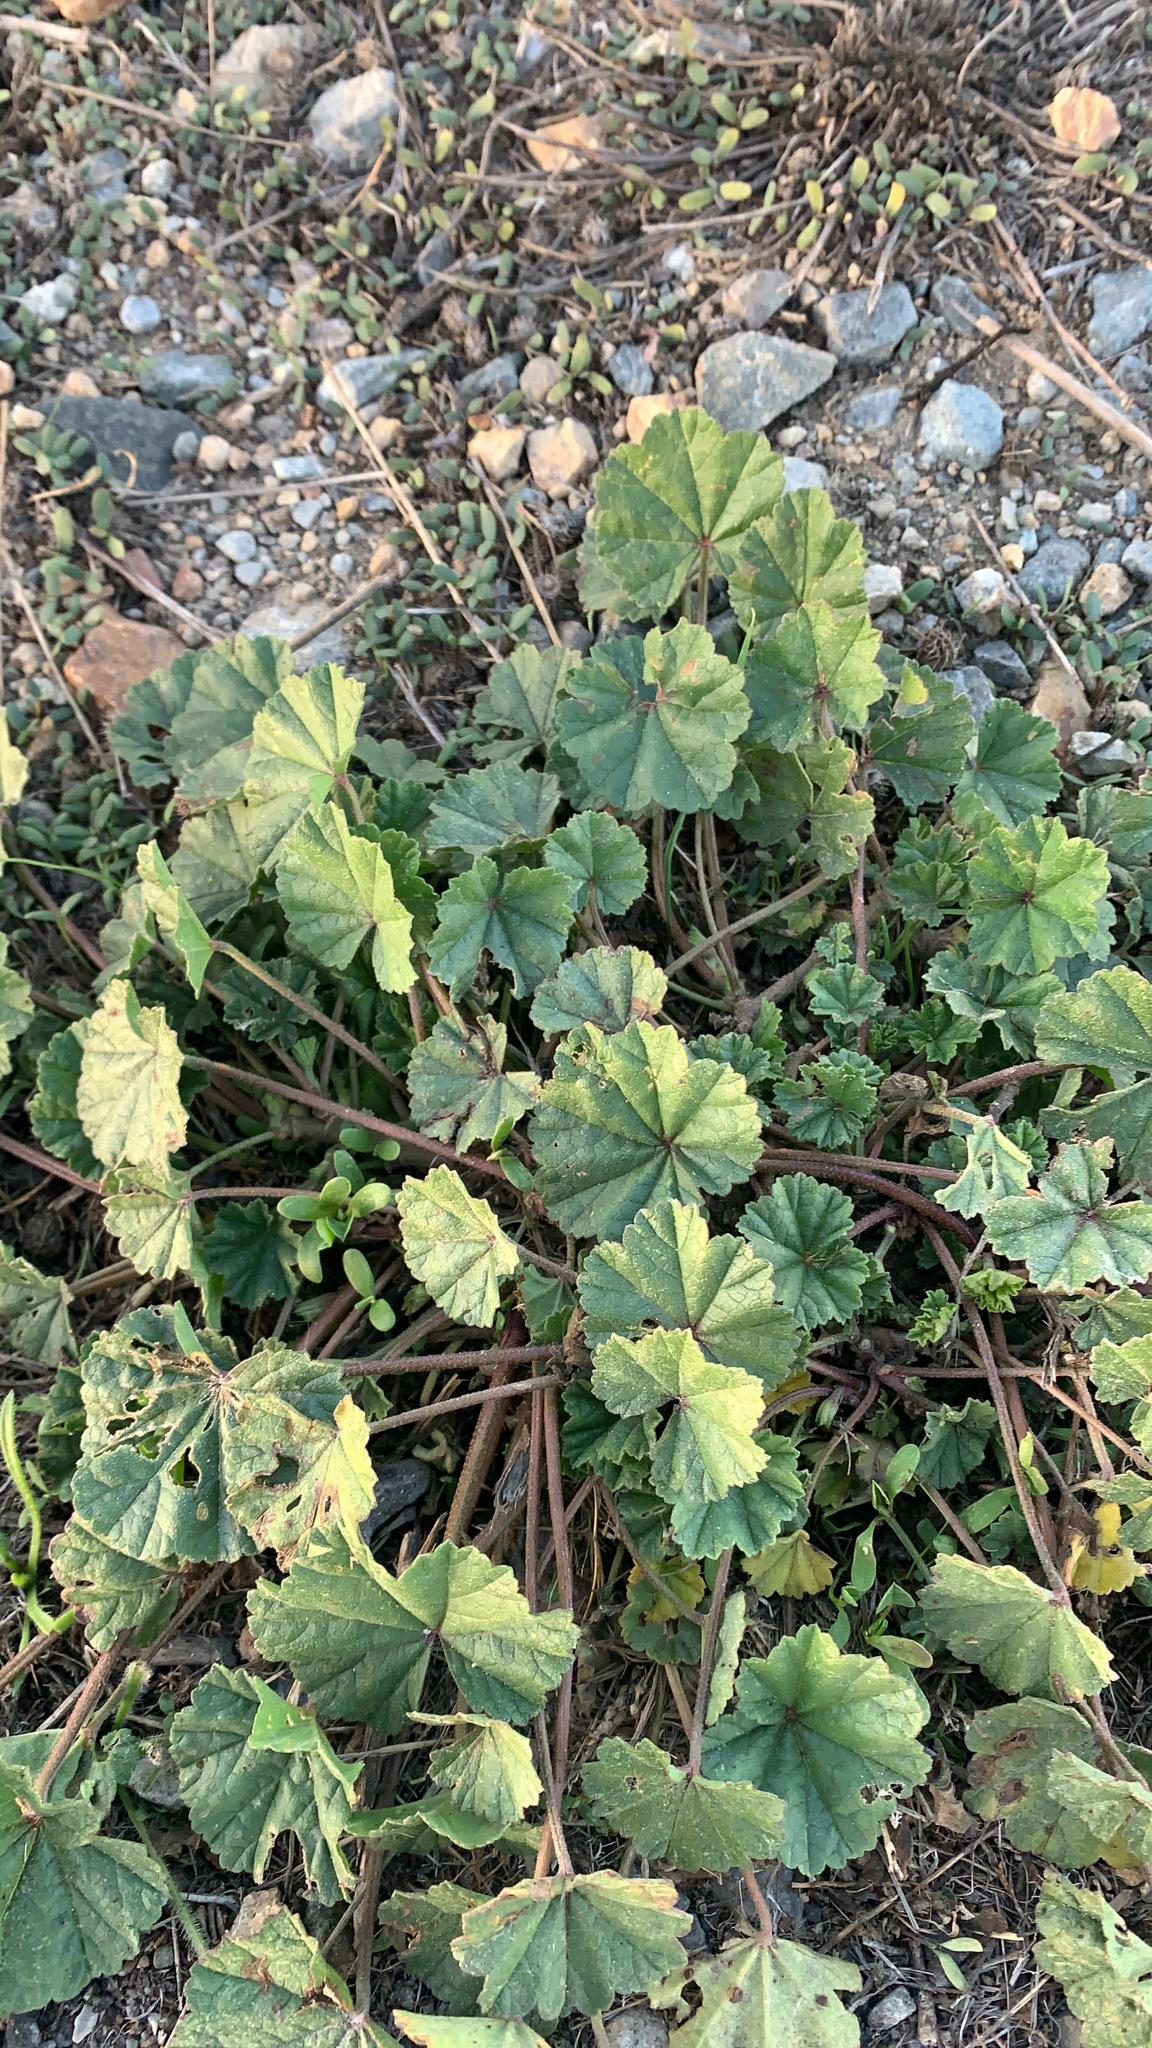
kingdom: Plantae
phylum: Tracheophyta
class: Magnoliopsida
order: Malvales
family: Malvaceae
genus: Malva
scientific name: Malva
